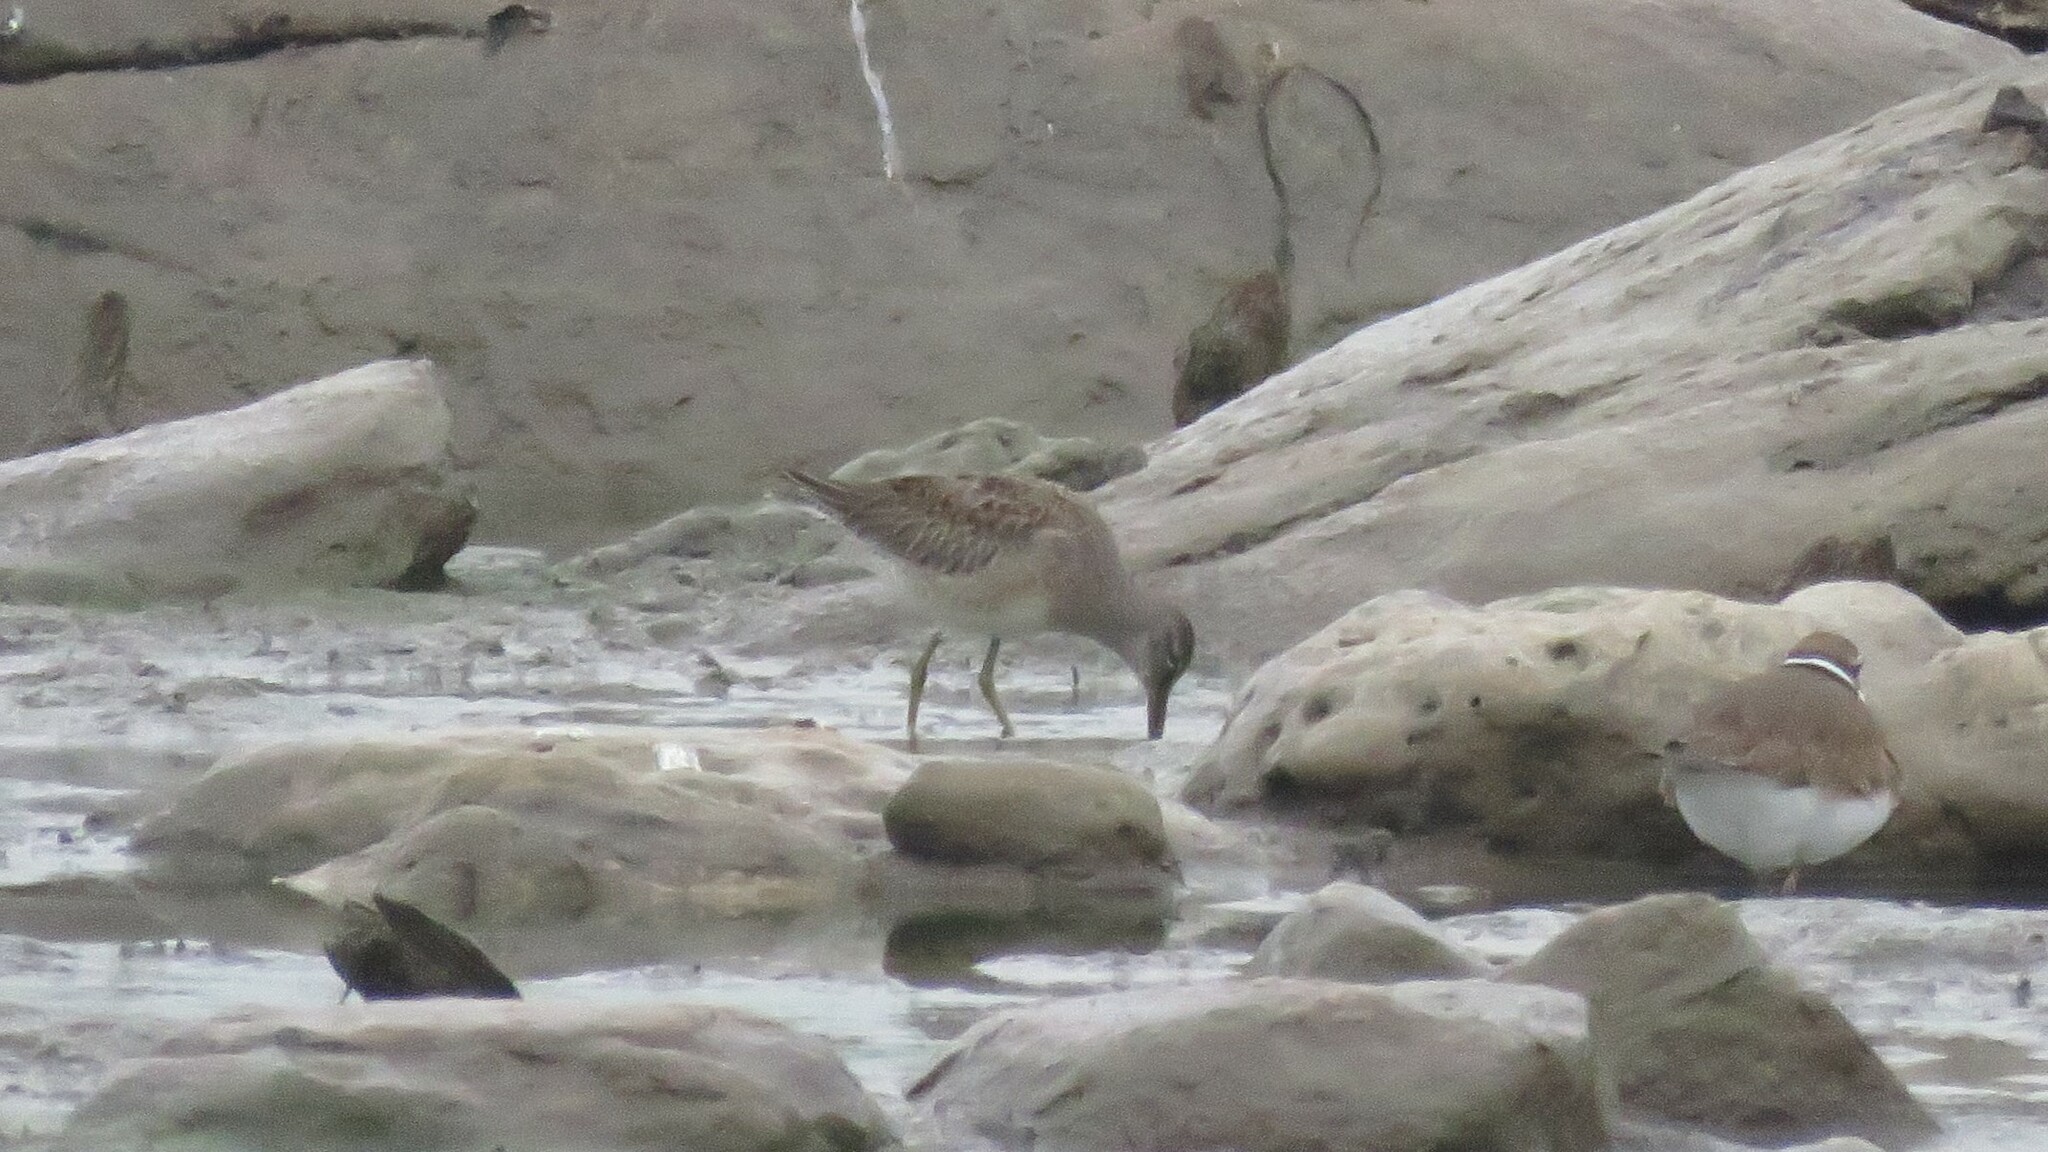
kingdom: Animalia
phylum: Chordata
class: Aves
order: Charadriiformes
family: Scolopacidae
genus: Limnodromus
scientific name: Limnodromus scolopaceus
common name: Long-billed dowitcher
